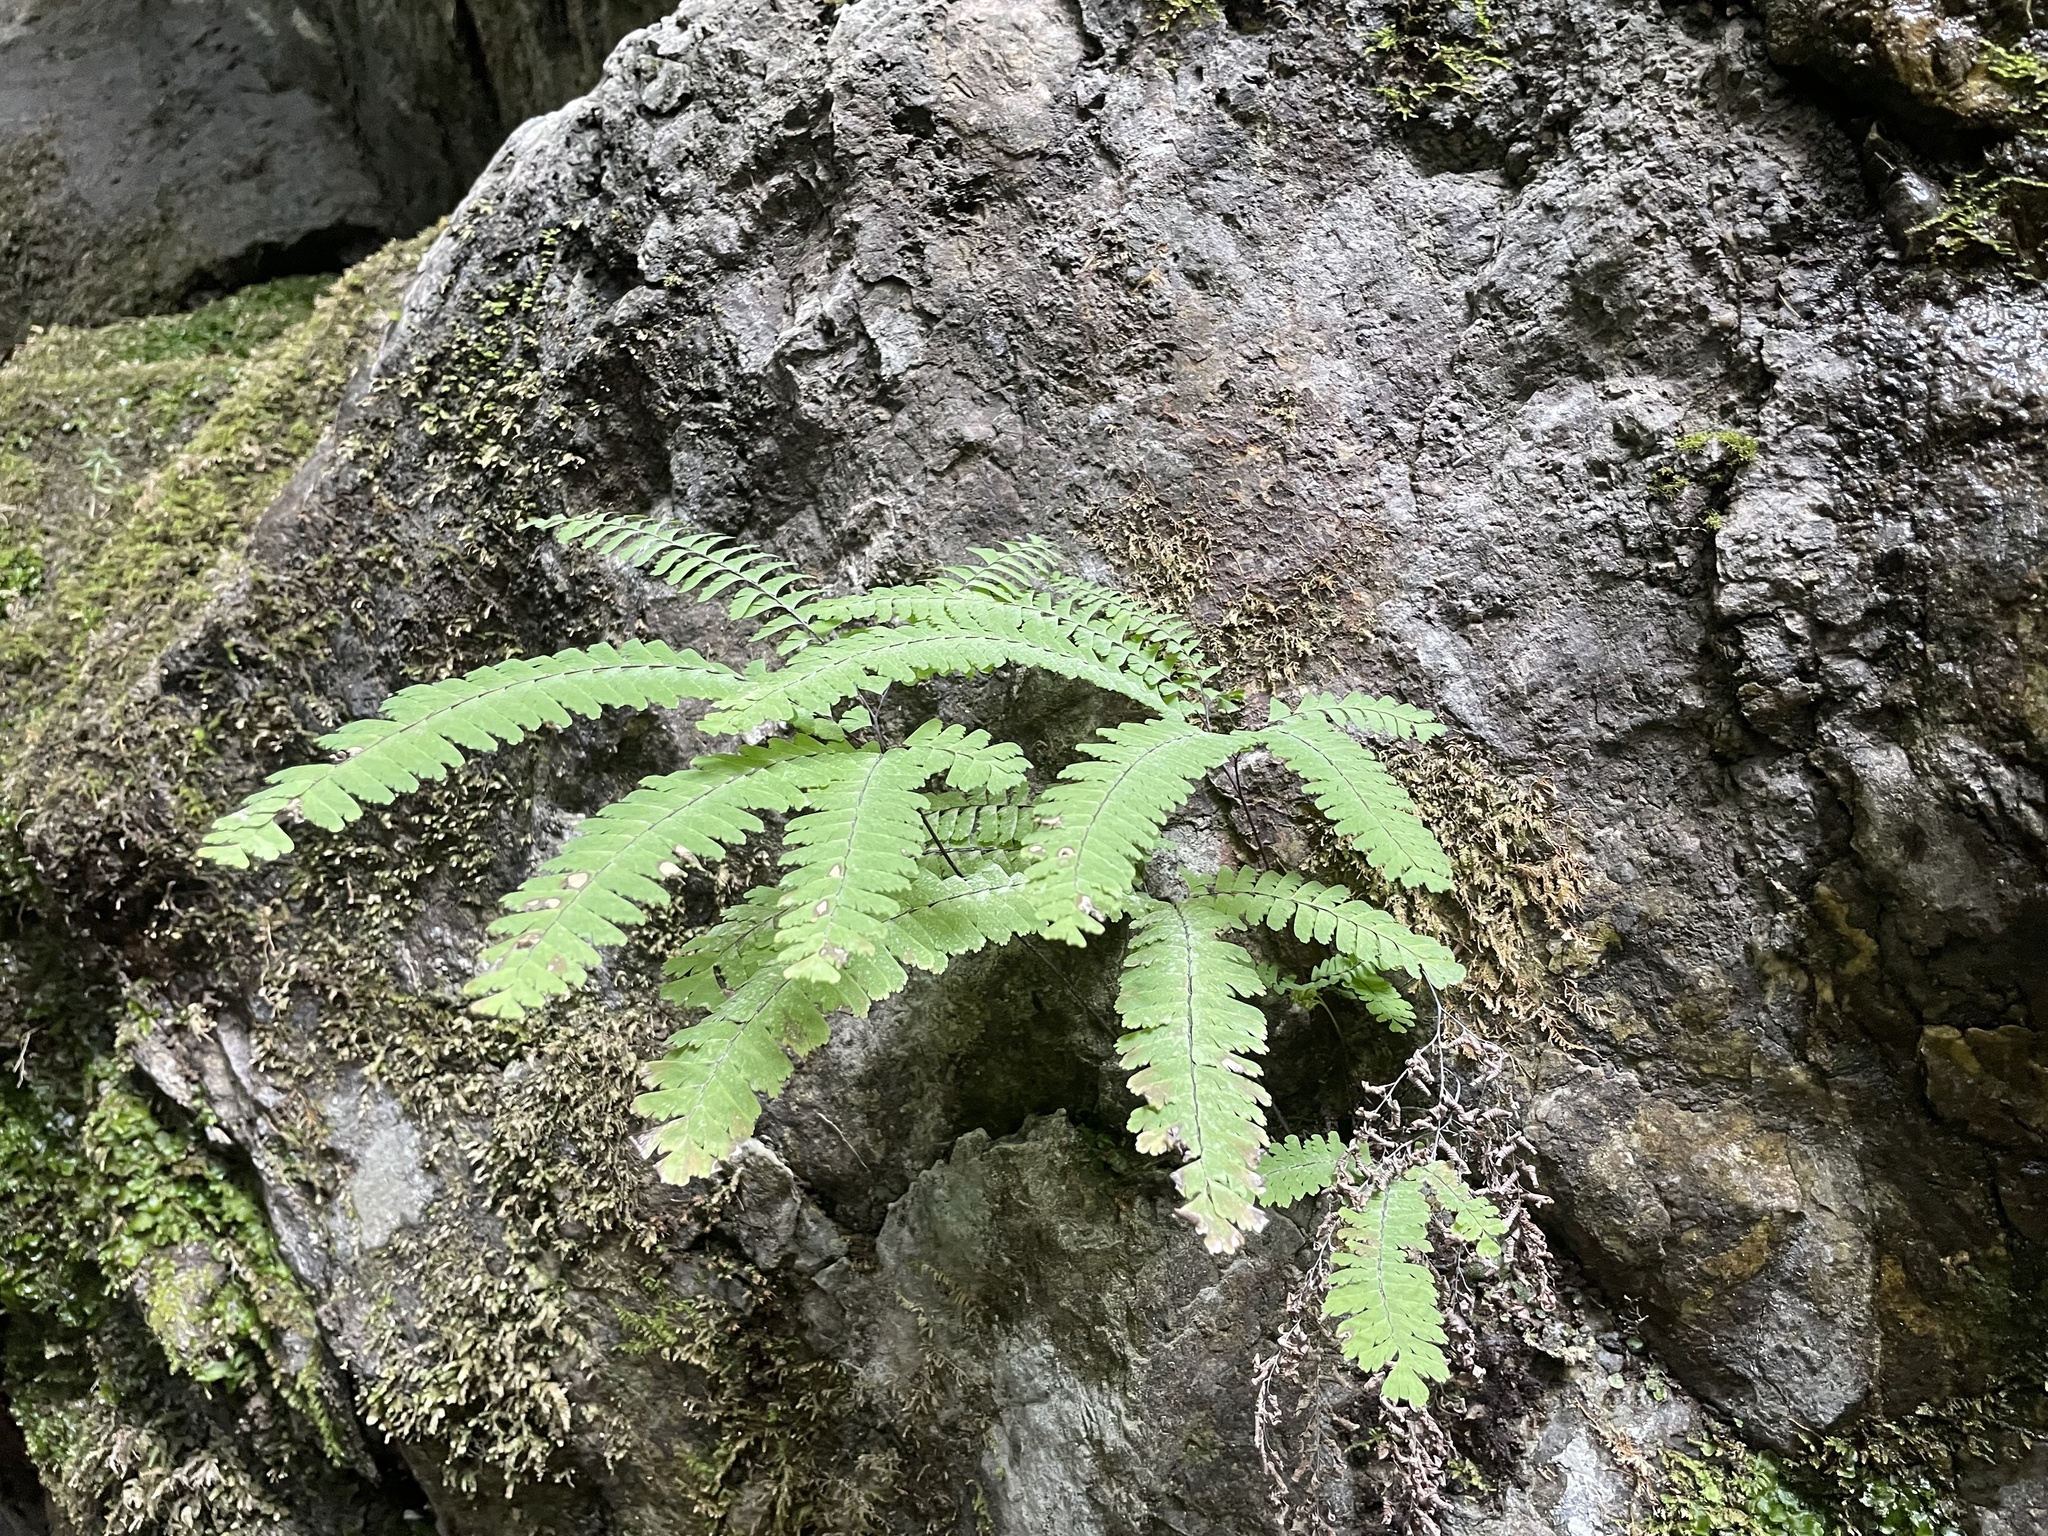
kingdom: Plantae
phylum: Tracheophyta
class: Polypodiopsida
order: Polypodiales
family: Pteridaceae
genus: Adiantum
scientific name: Adiantum aleuticum
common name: Aleutian maidenhair fern
